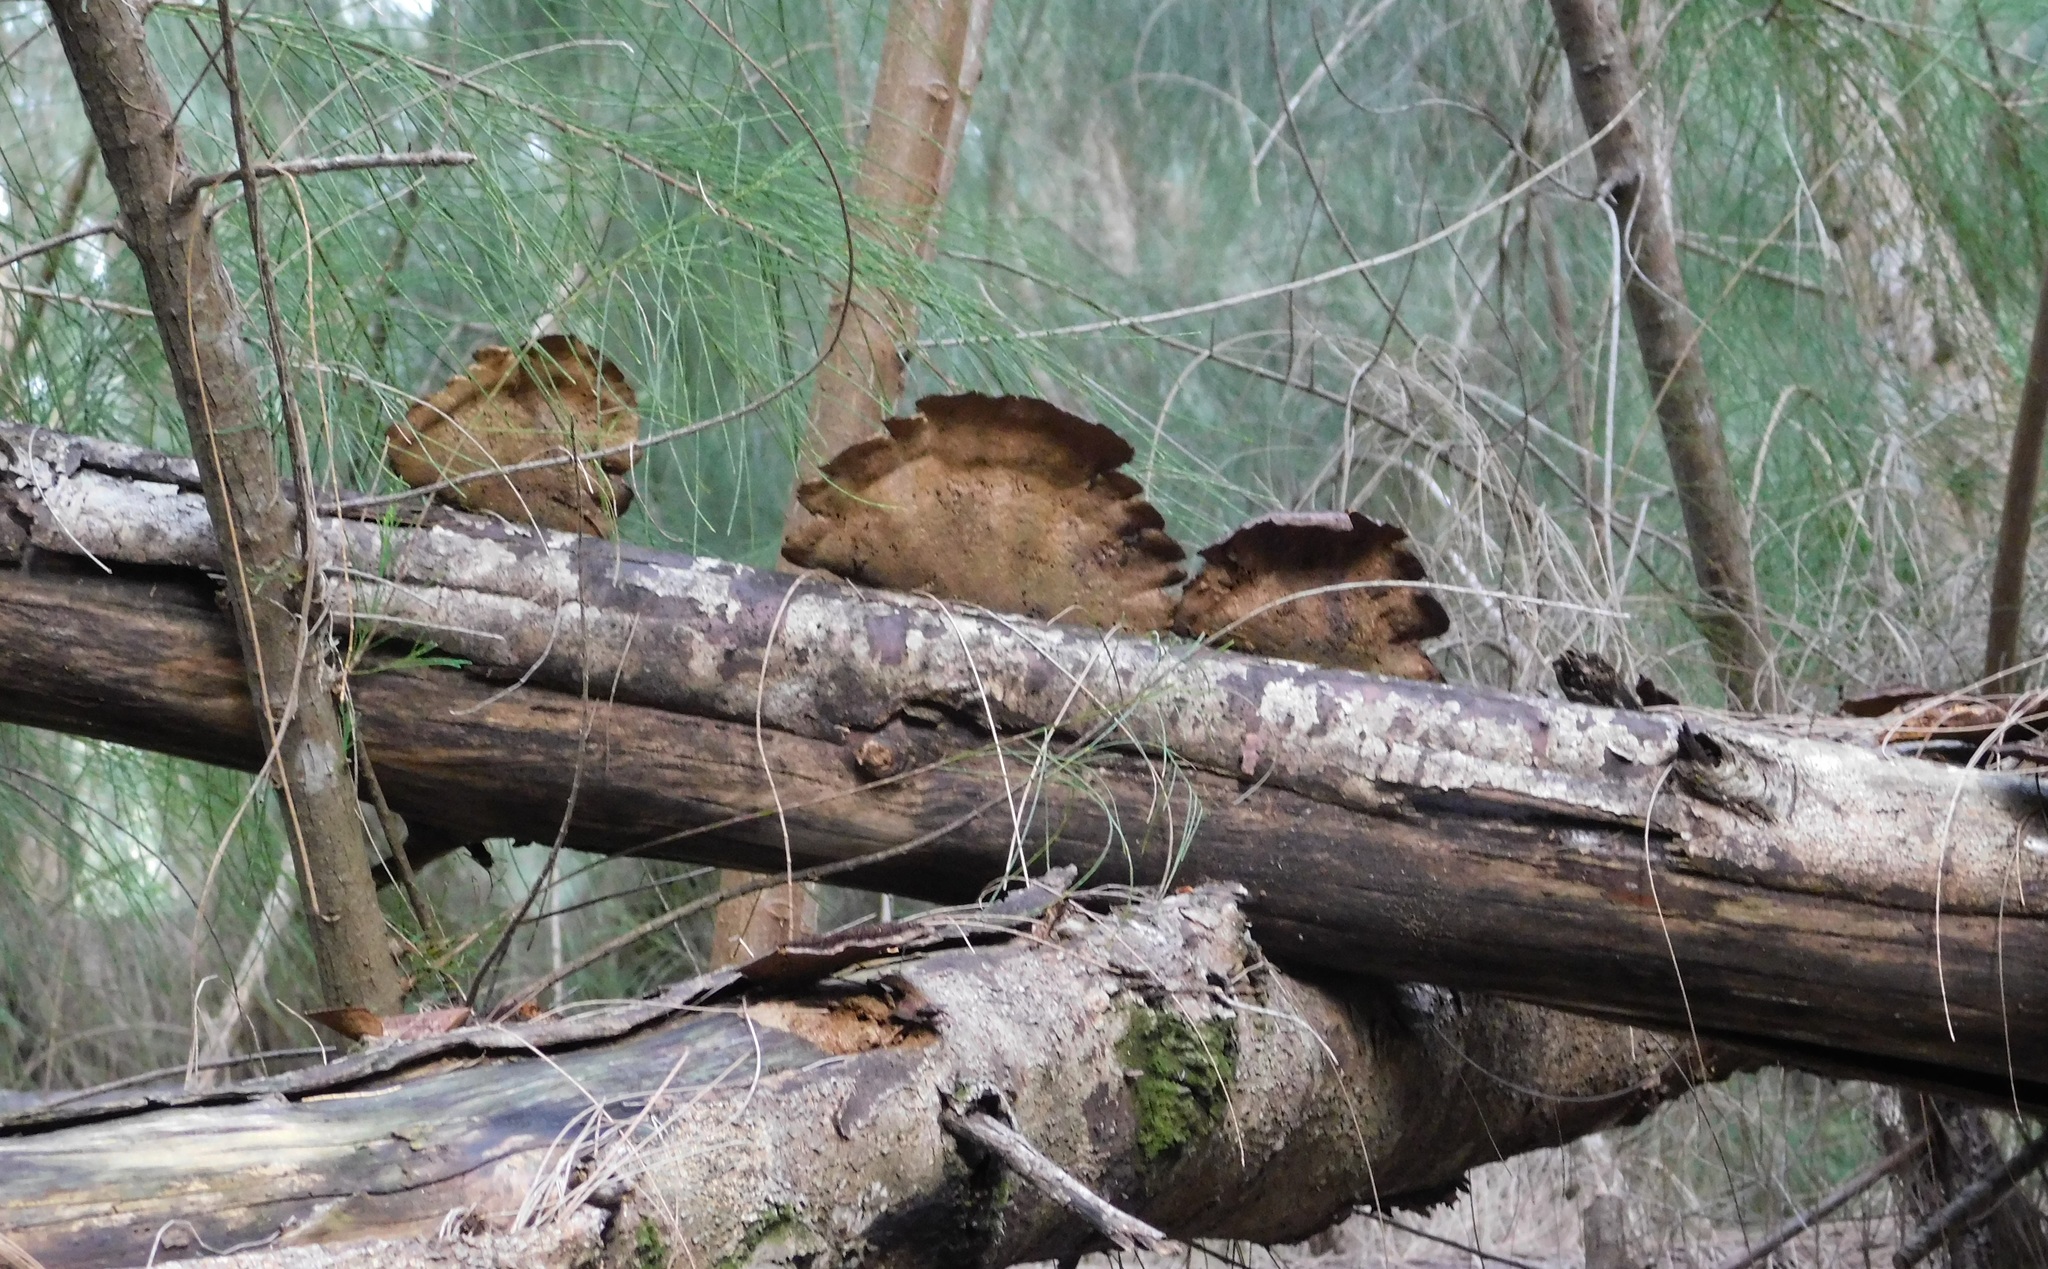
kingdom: Fungi
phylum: Basidiomycota
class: Agaricomycetes
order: Polyporales
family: Cerrenaceae
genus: Cerrena
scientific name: Cerrena hydnoides
